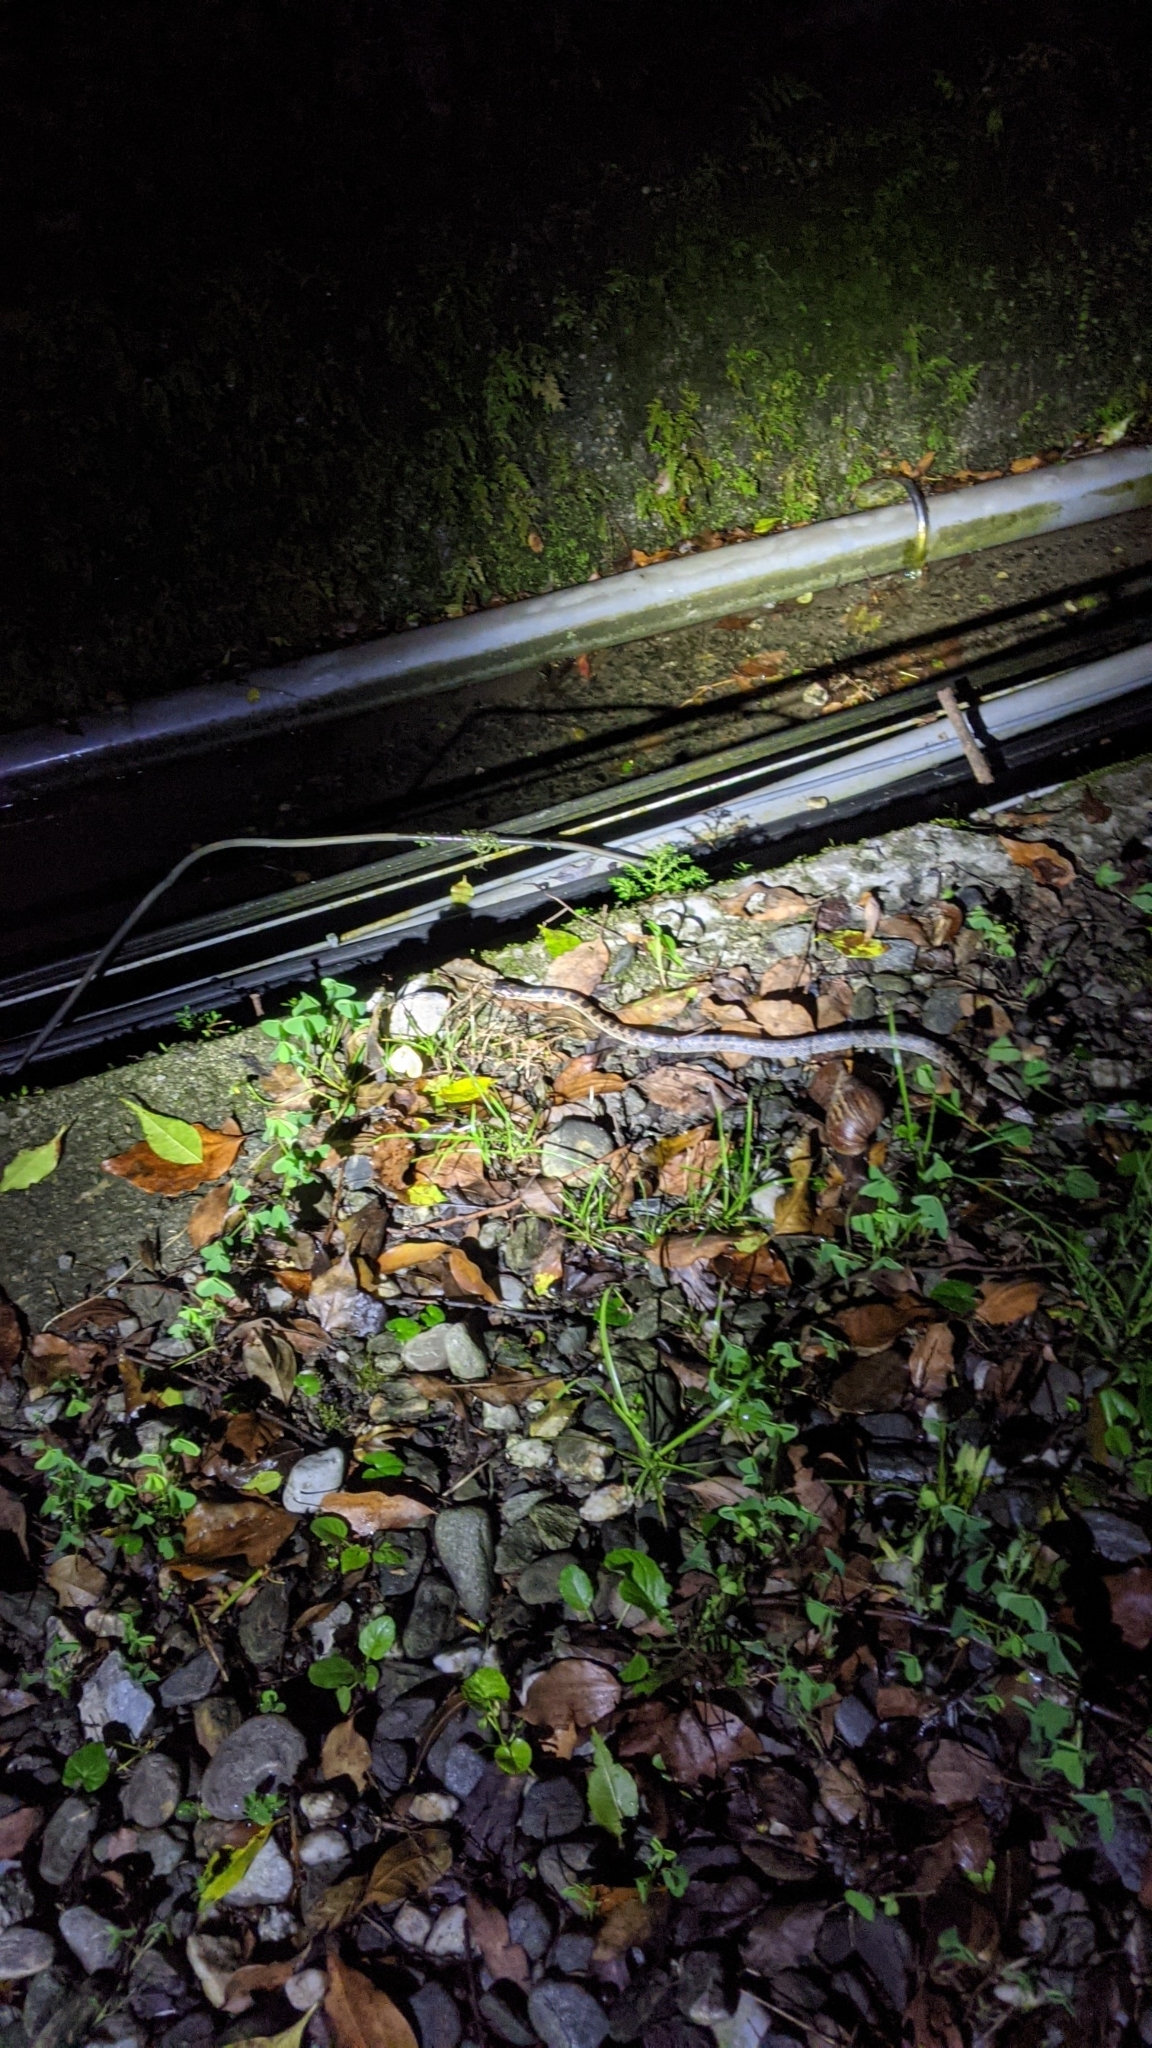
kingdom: Animalia
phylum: Chordata
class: Squamata
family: Colubridae
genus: Lycodon
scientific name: Lycodon rufozonatus
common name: Red-banded snake
